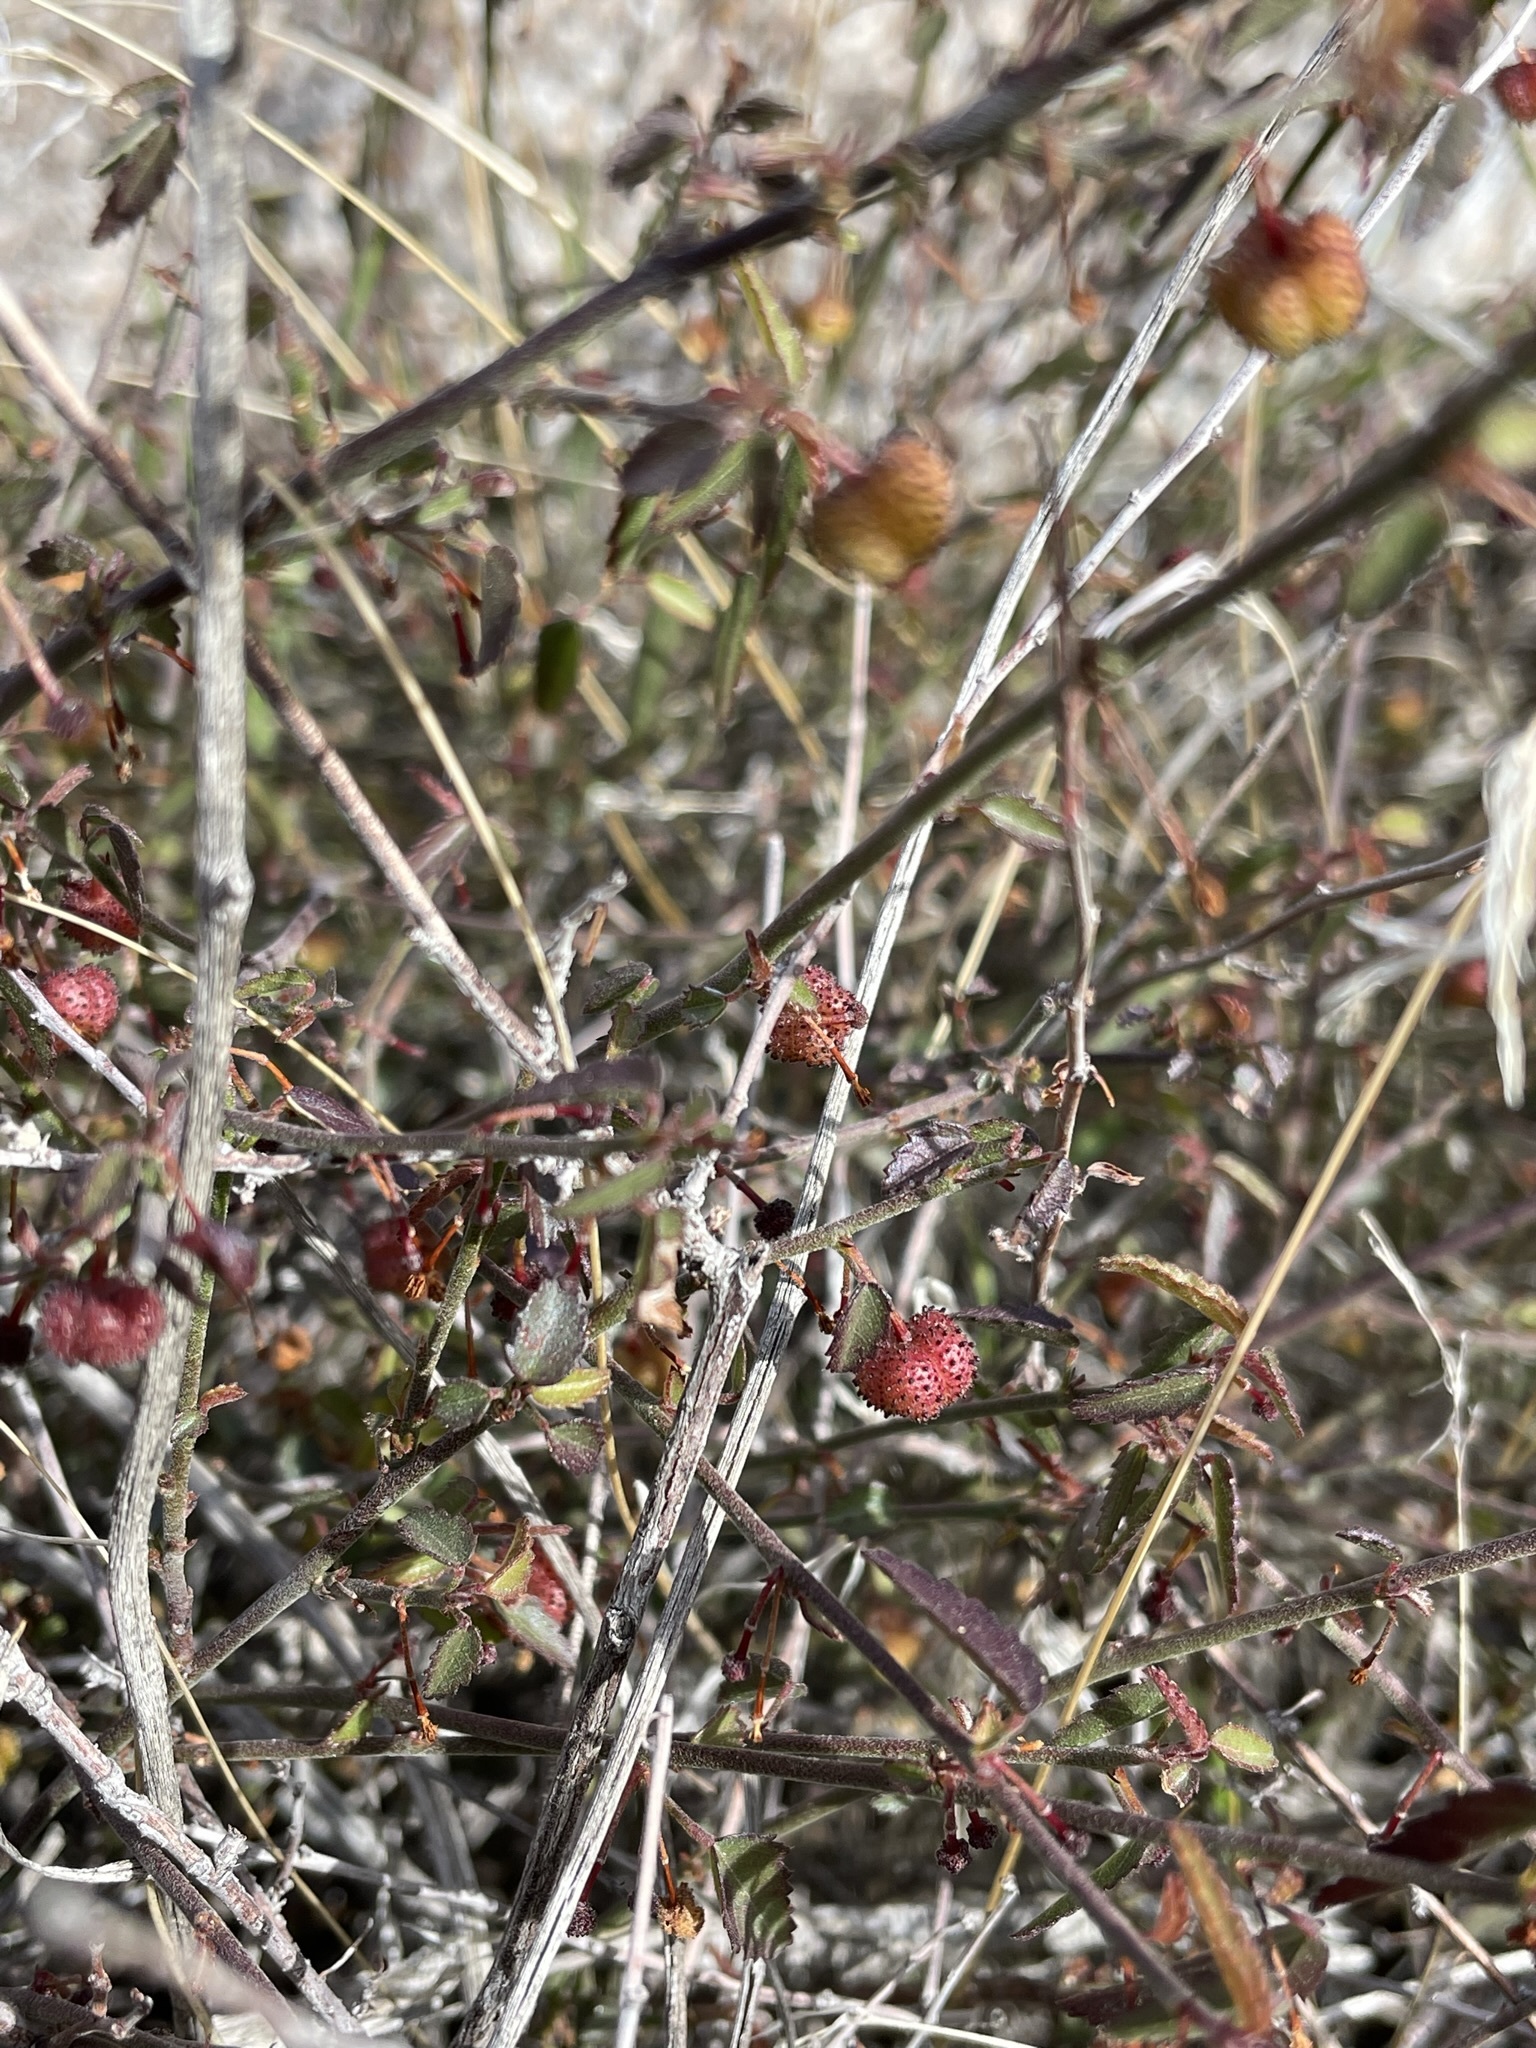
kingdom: Plantae
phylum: Tracheophyta
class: Magnoliopsida
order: Malvales
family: Malvaceae
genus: Ayenia
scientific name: Ayenia compacta
